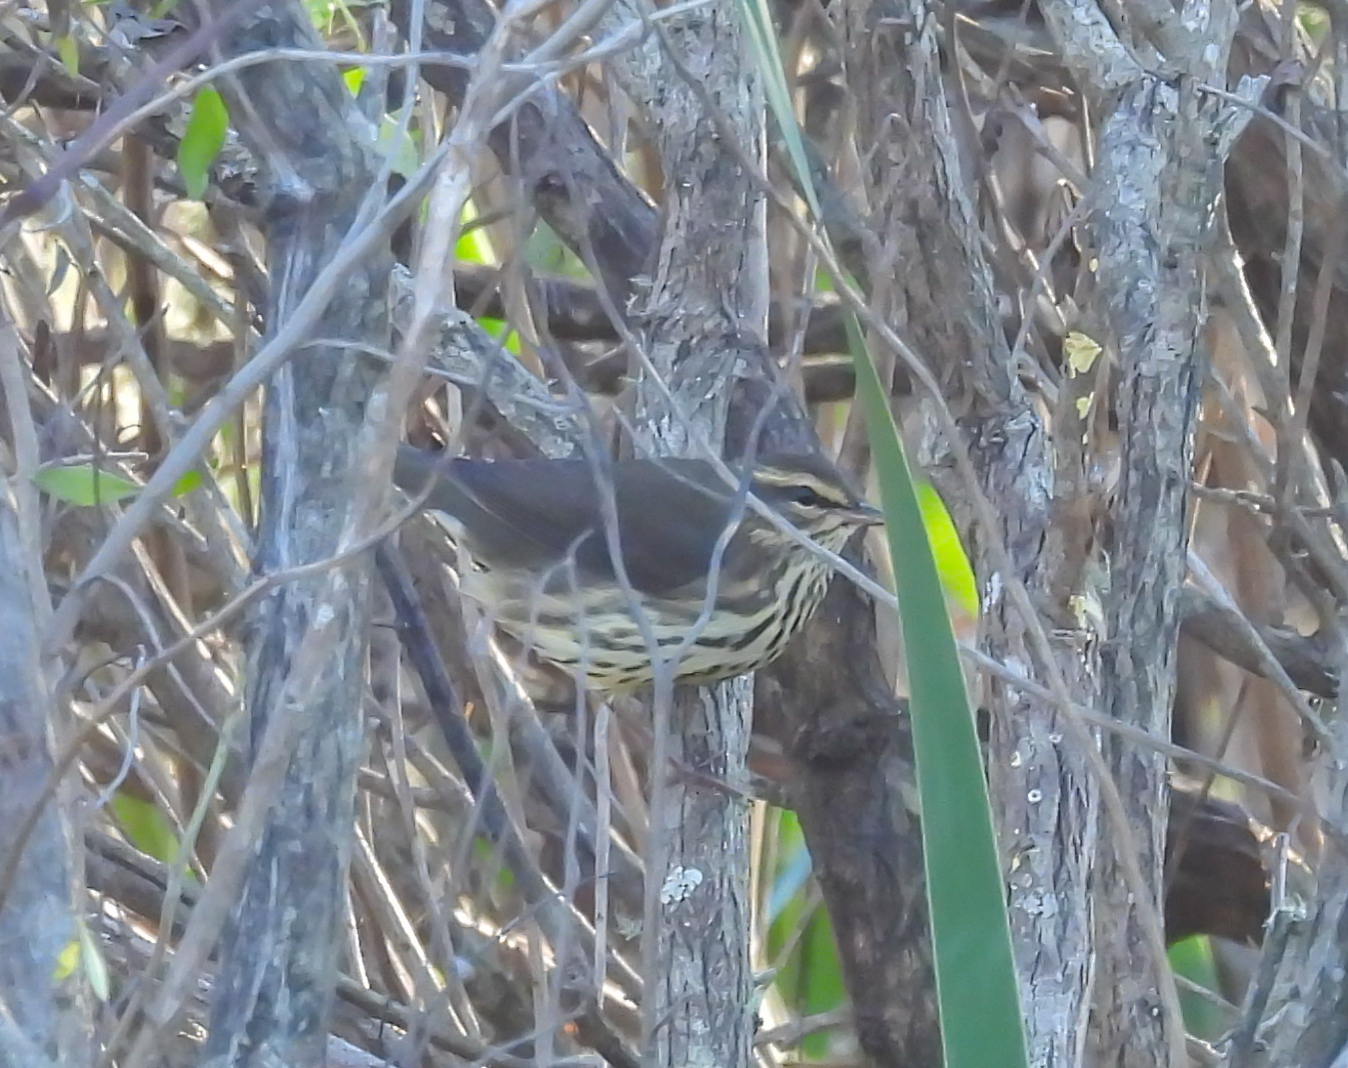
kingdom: Animalia
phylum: Chordata
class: Aves
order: Passeriformes
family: Parulidae
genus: Parkesia
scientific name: Parkesia noveboracensis
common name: Northern waterthrush
